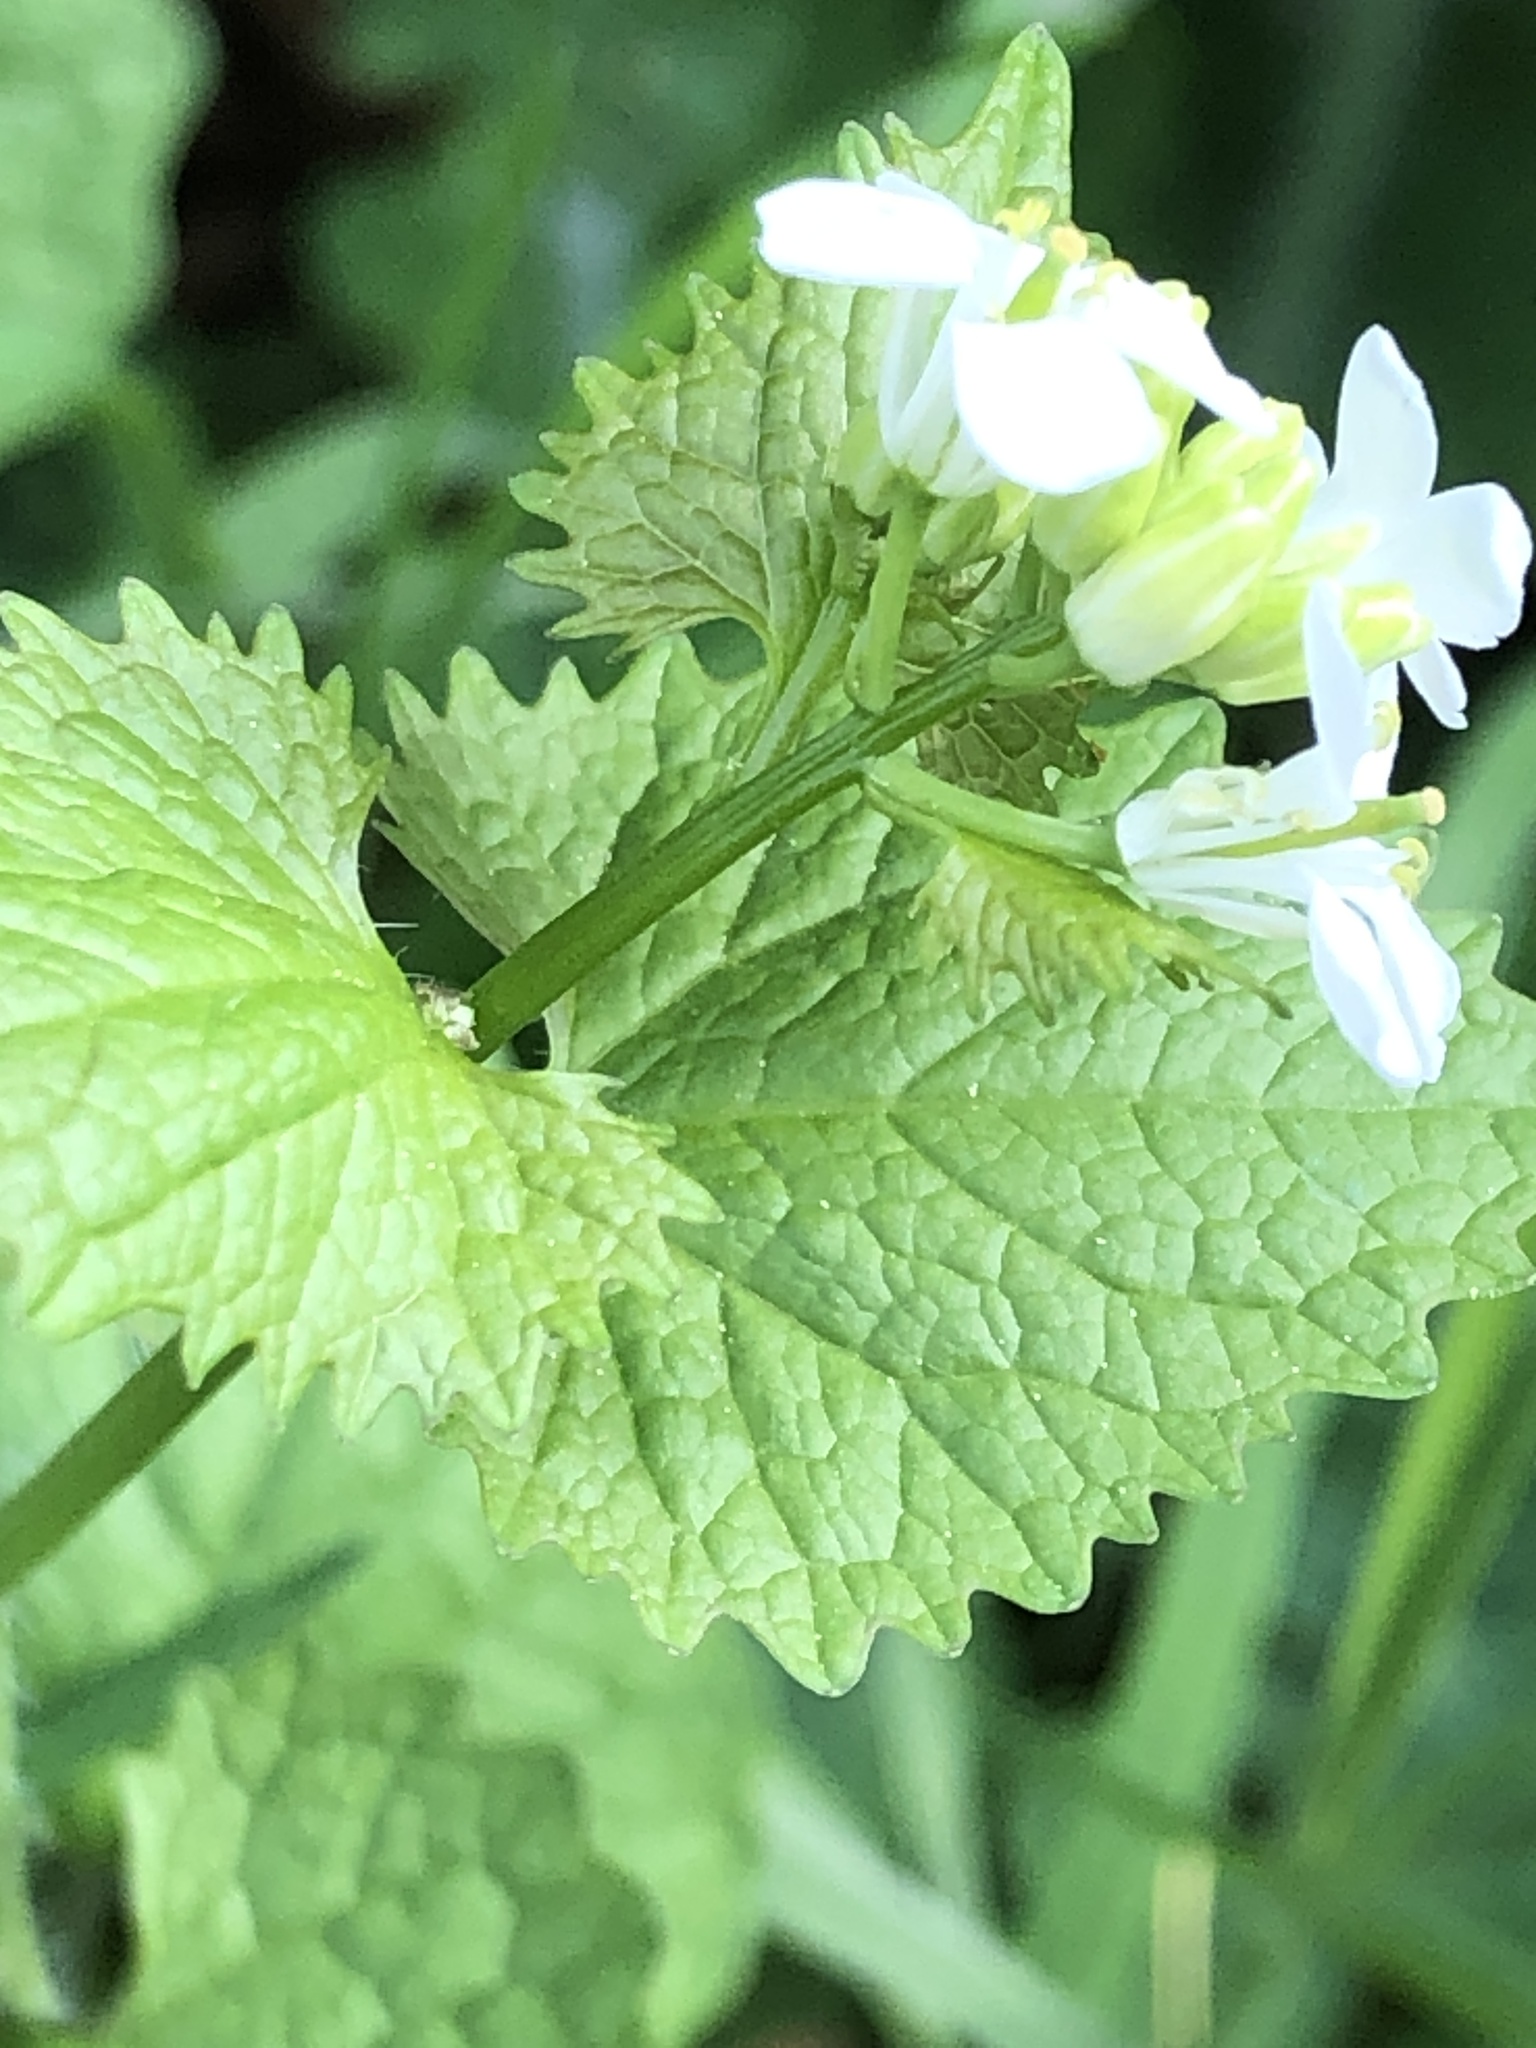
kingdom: Plantae
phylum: Tracheophyta
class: Magnoliopsida
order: Brassicales
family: Brassicaceae
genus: Alliaria
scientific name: Alliaria petiolata
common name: Garlic mustard
